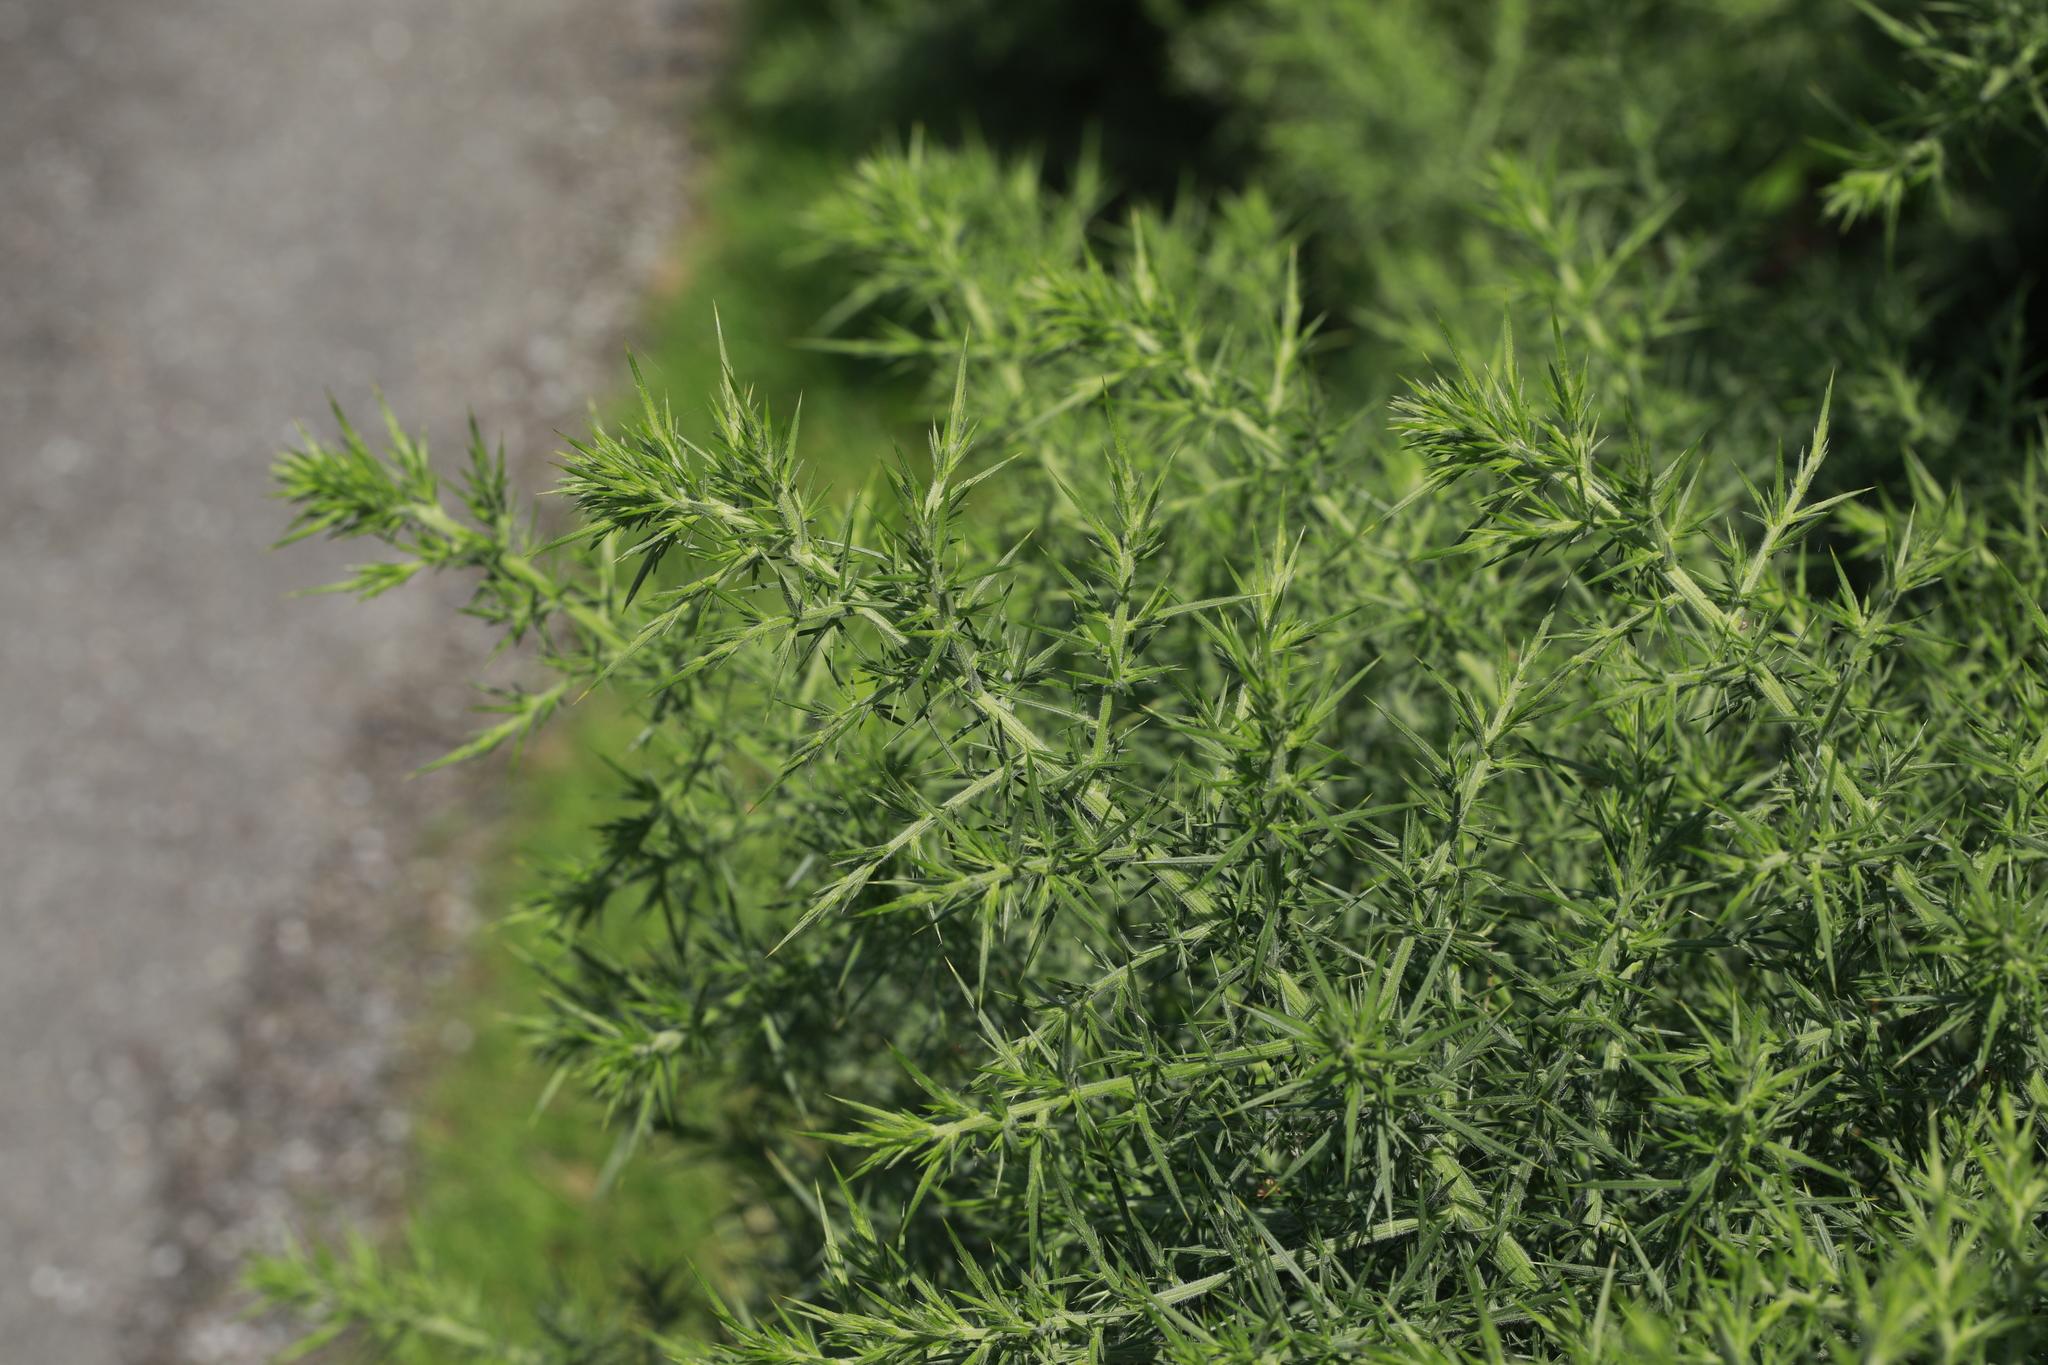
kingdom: Plantae
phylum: Tracheophyta
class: Magnoliopsida
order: Fabales
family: Fabaceae
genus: Ulex
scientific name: Ulex europaeus
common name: Common gorse
